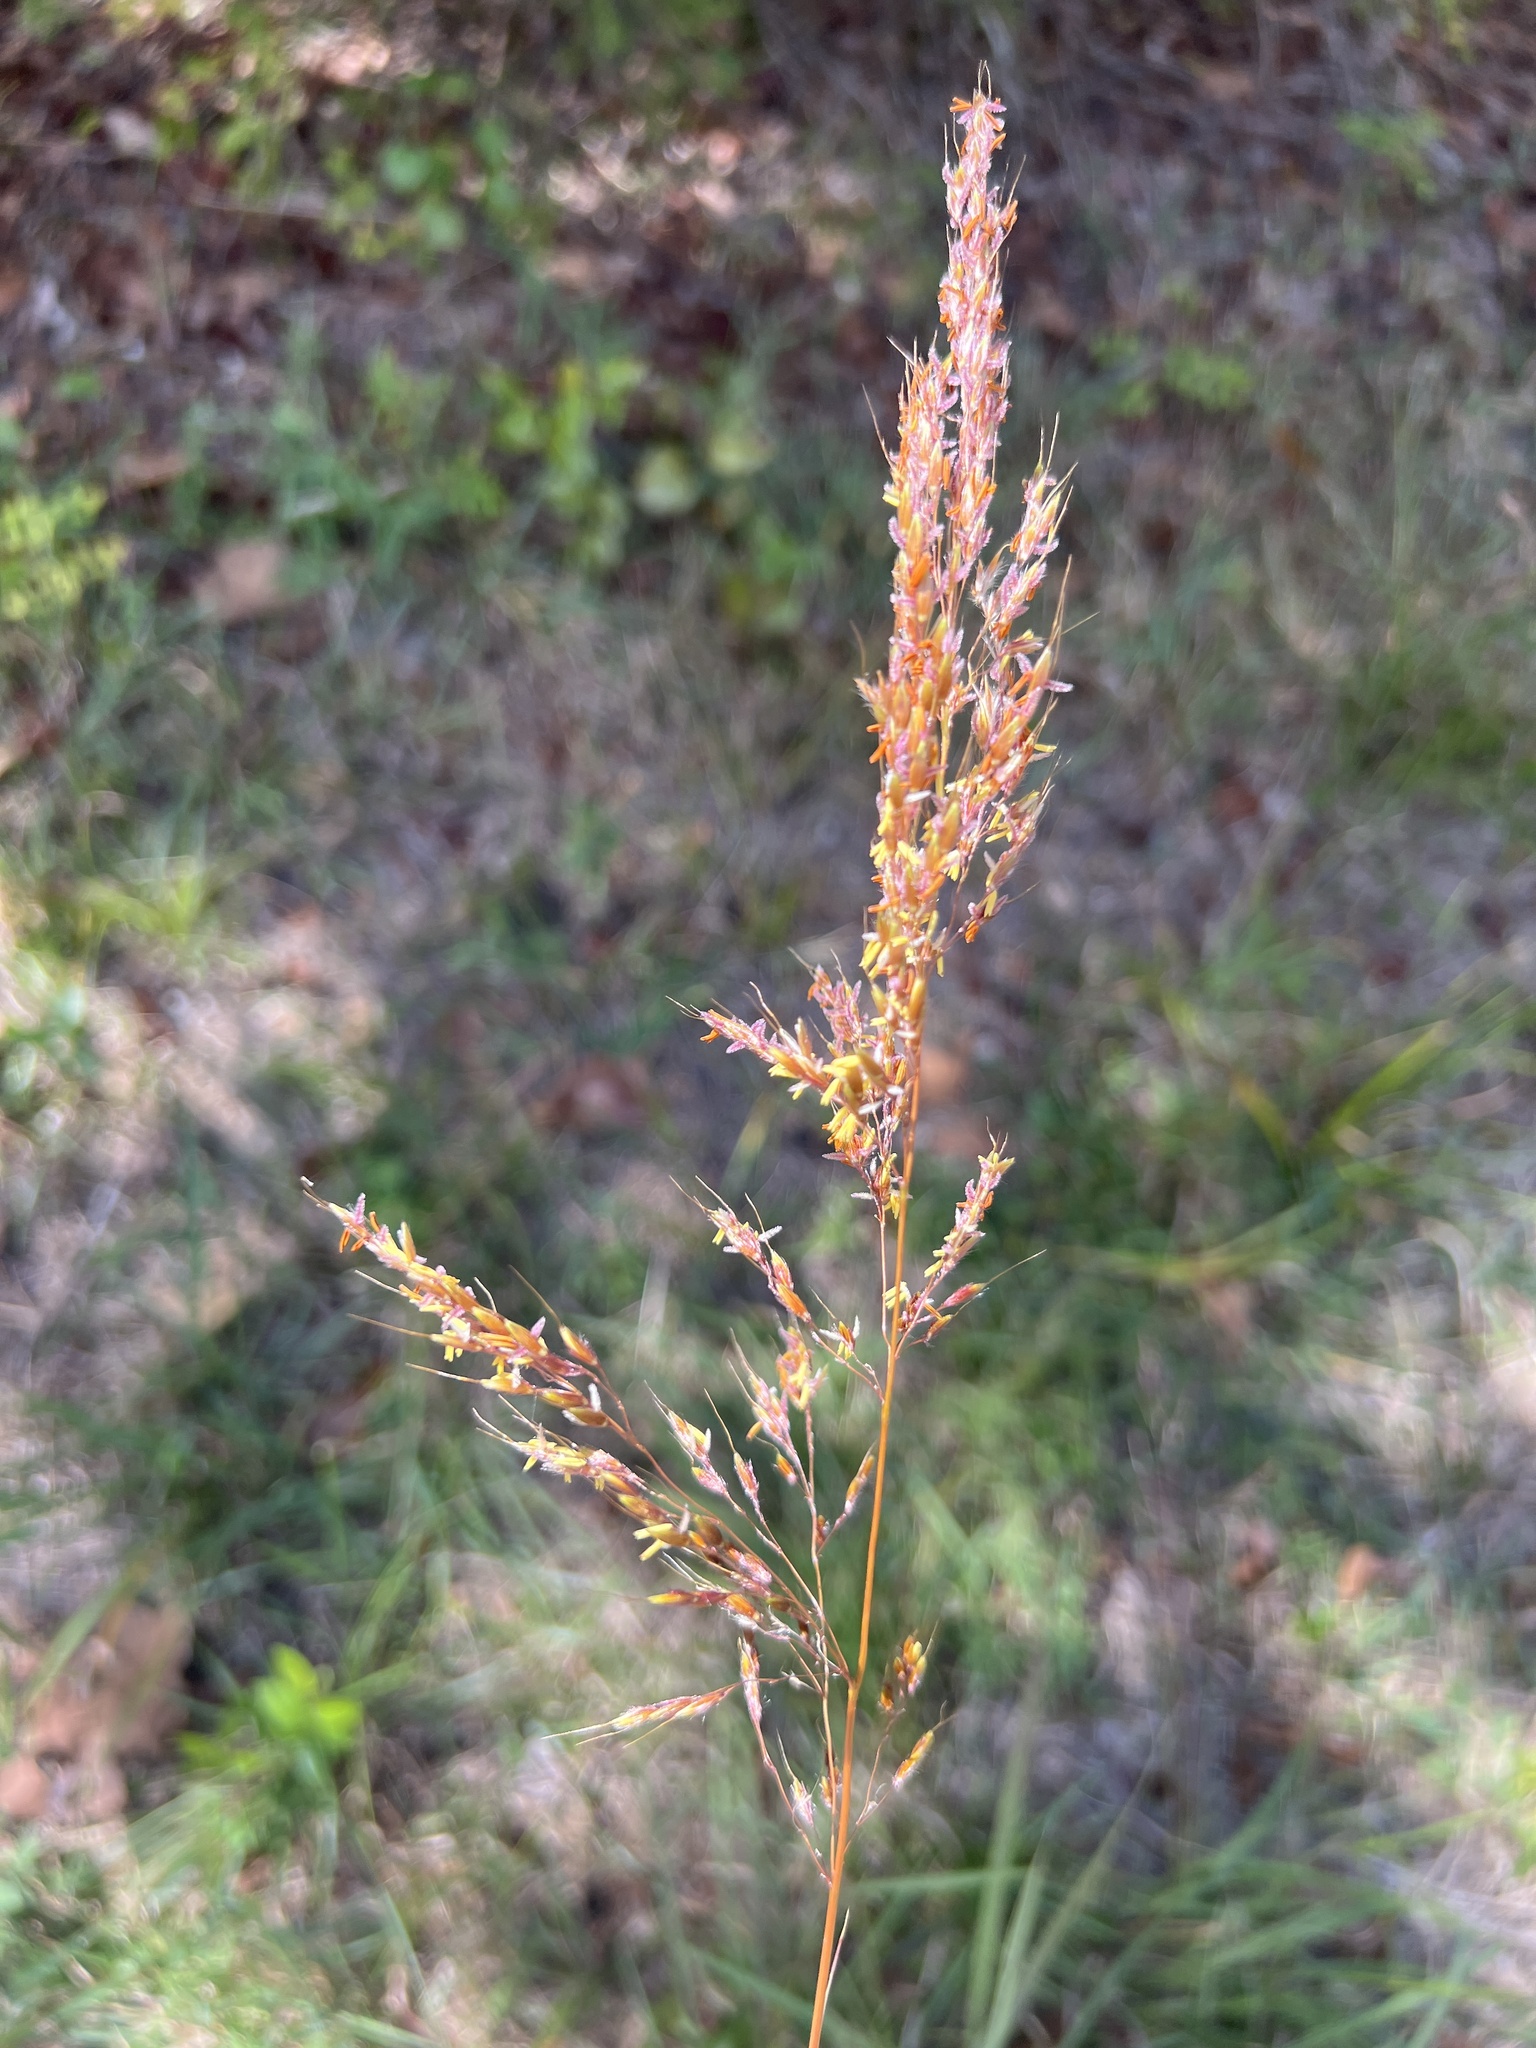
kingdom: Plantae
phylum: Tracheophyta
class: Liliopsida
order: Poales
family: Poaceae
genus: Sorghastrum
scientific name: Sorghastrum nutans
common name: Indian grass
